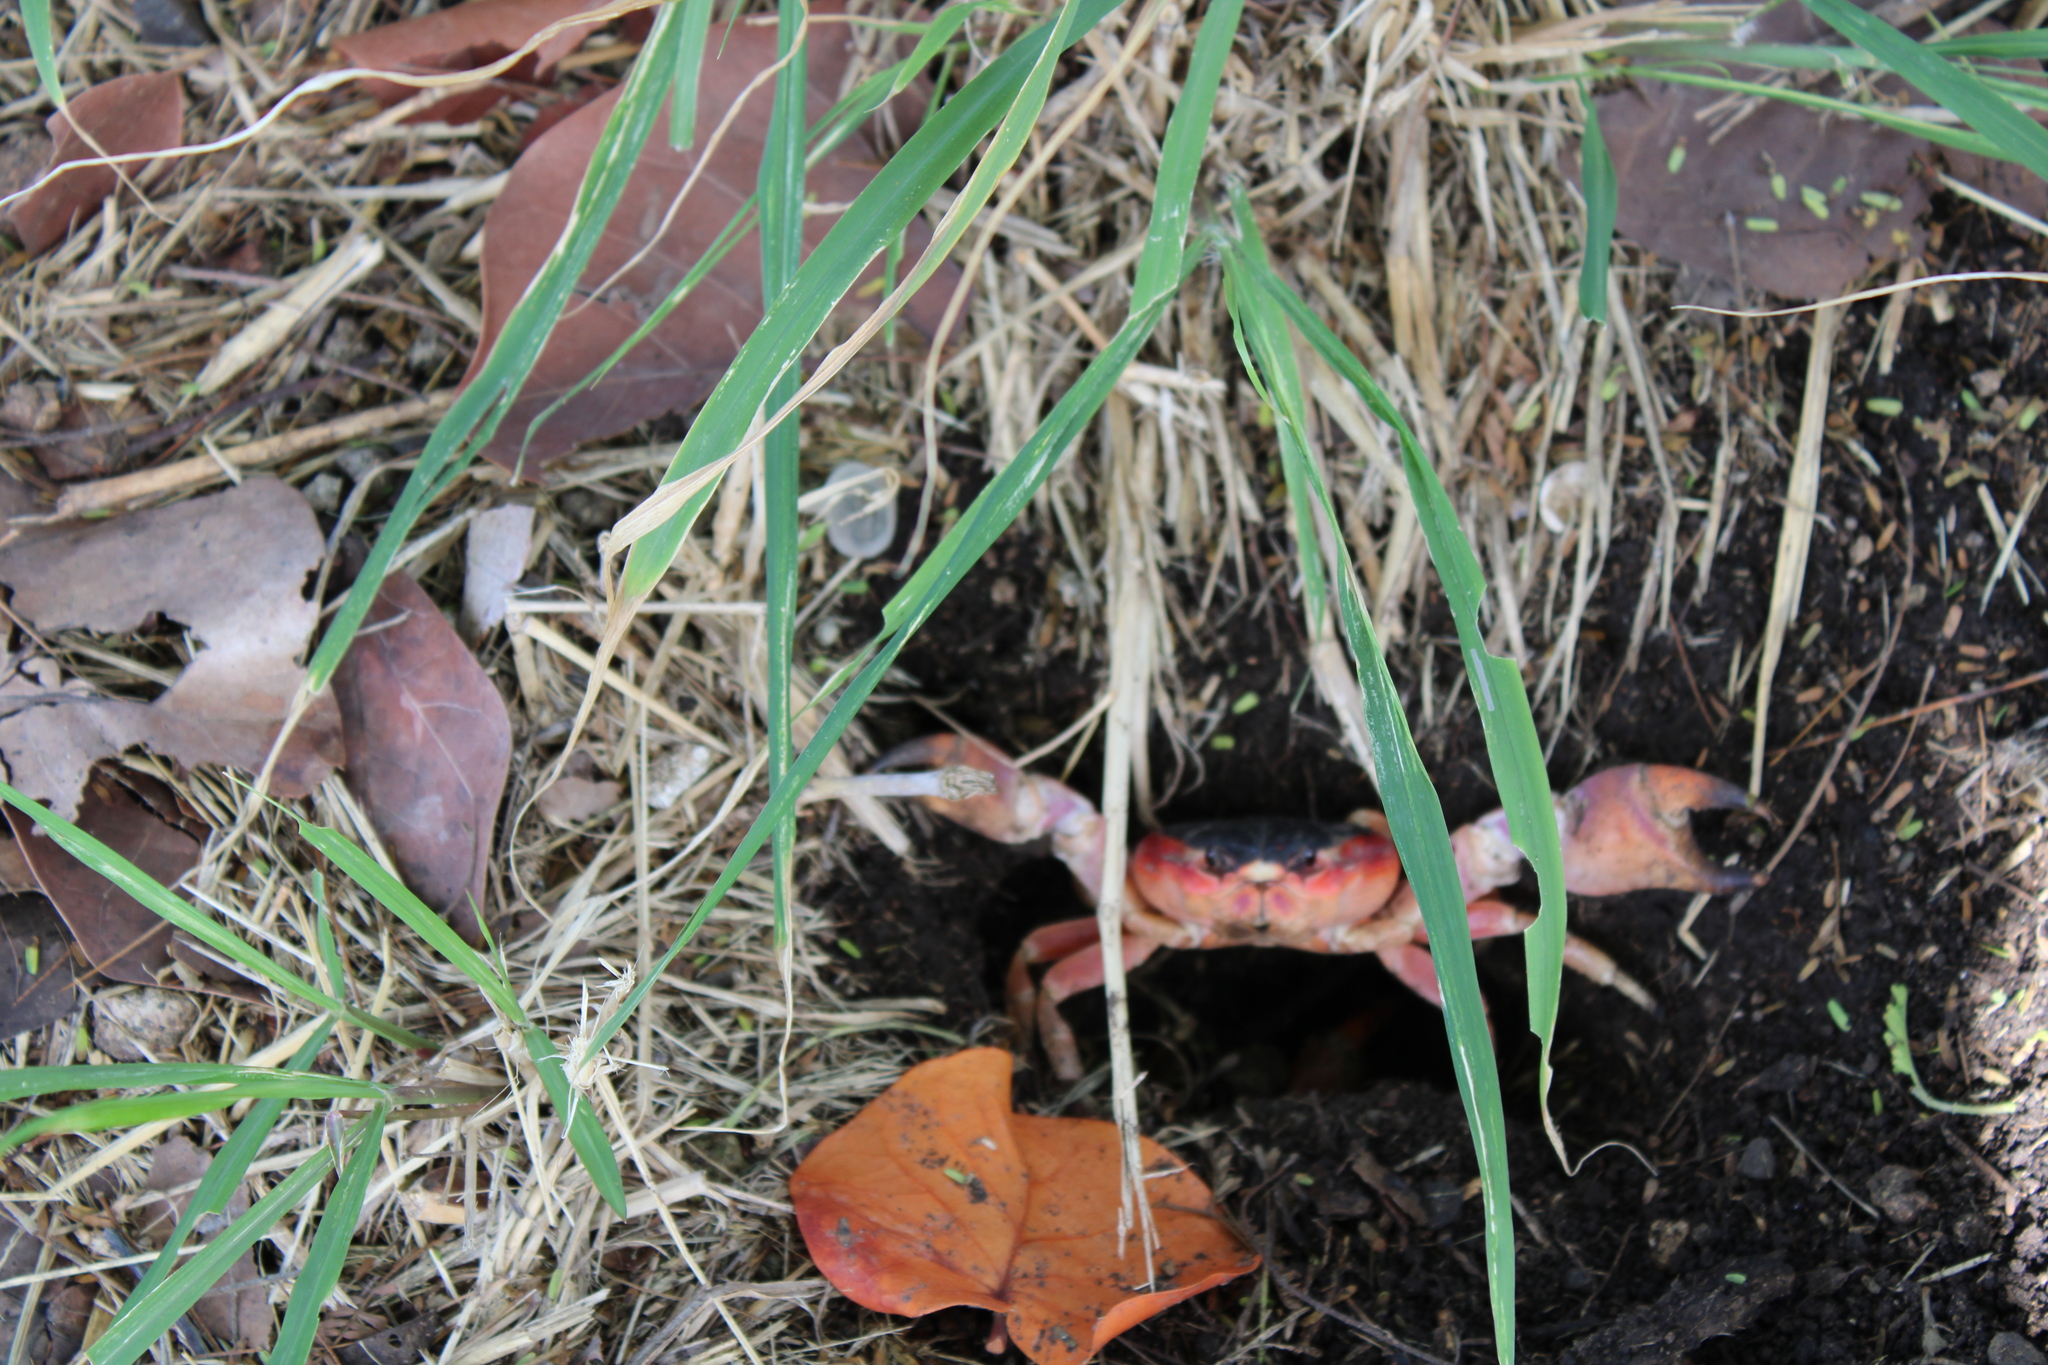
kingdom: Animalia
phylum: Arthropoda
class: Malacostraca
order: Decapoda
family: Gecarcinidae
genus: Gecarcinus
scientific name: Gecarcinus lateralis
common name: Bermuda land crab
